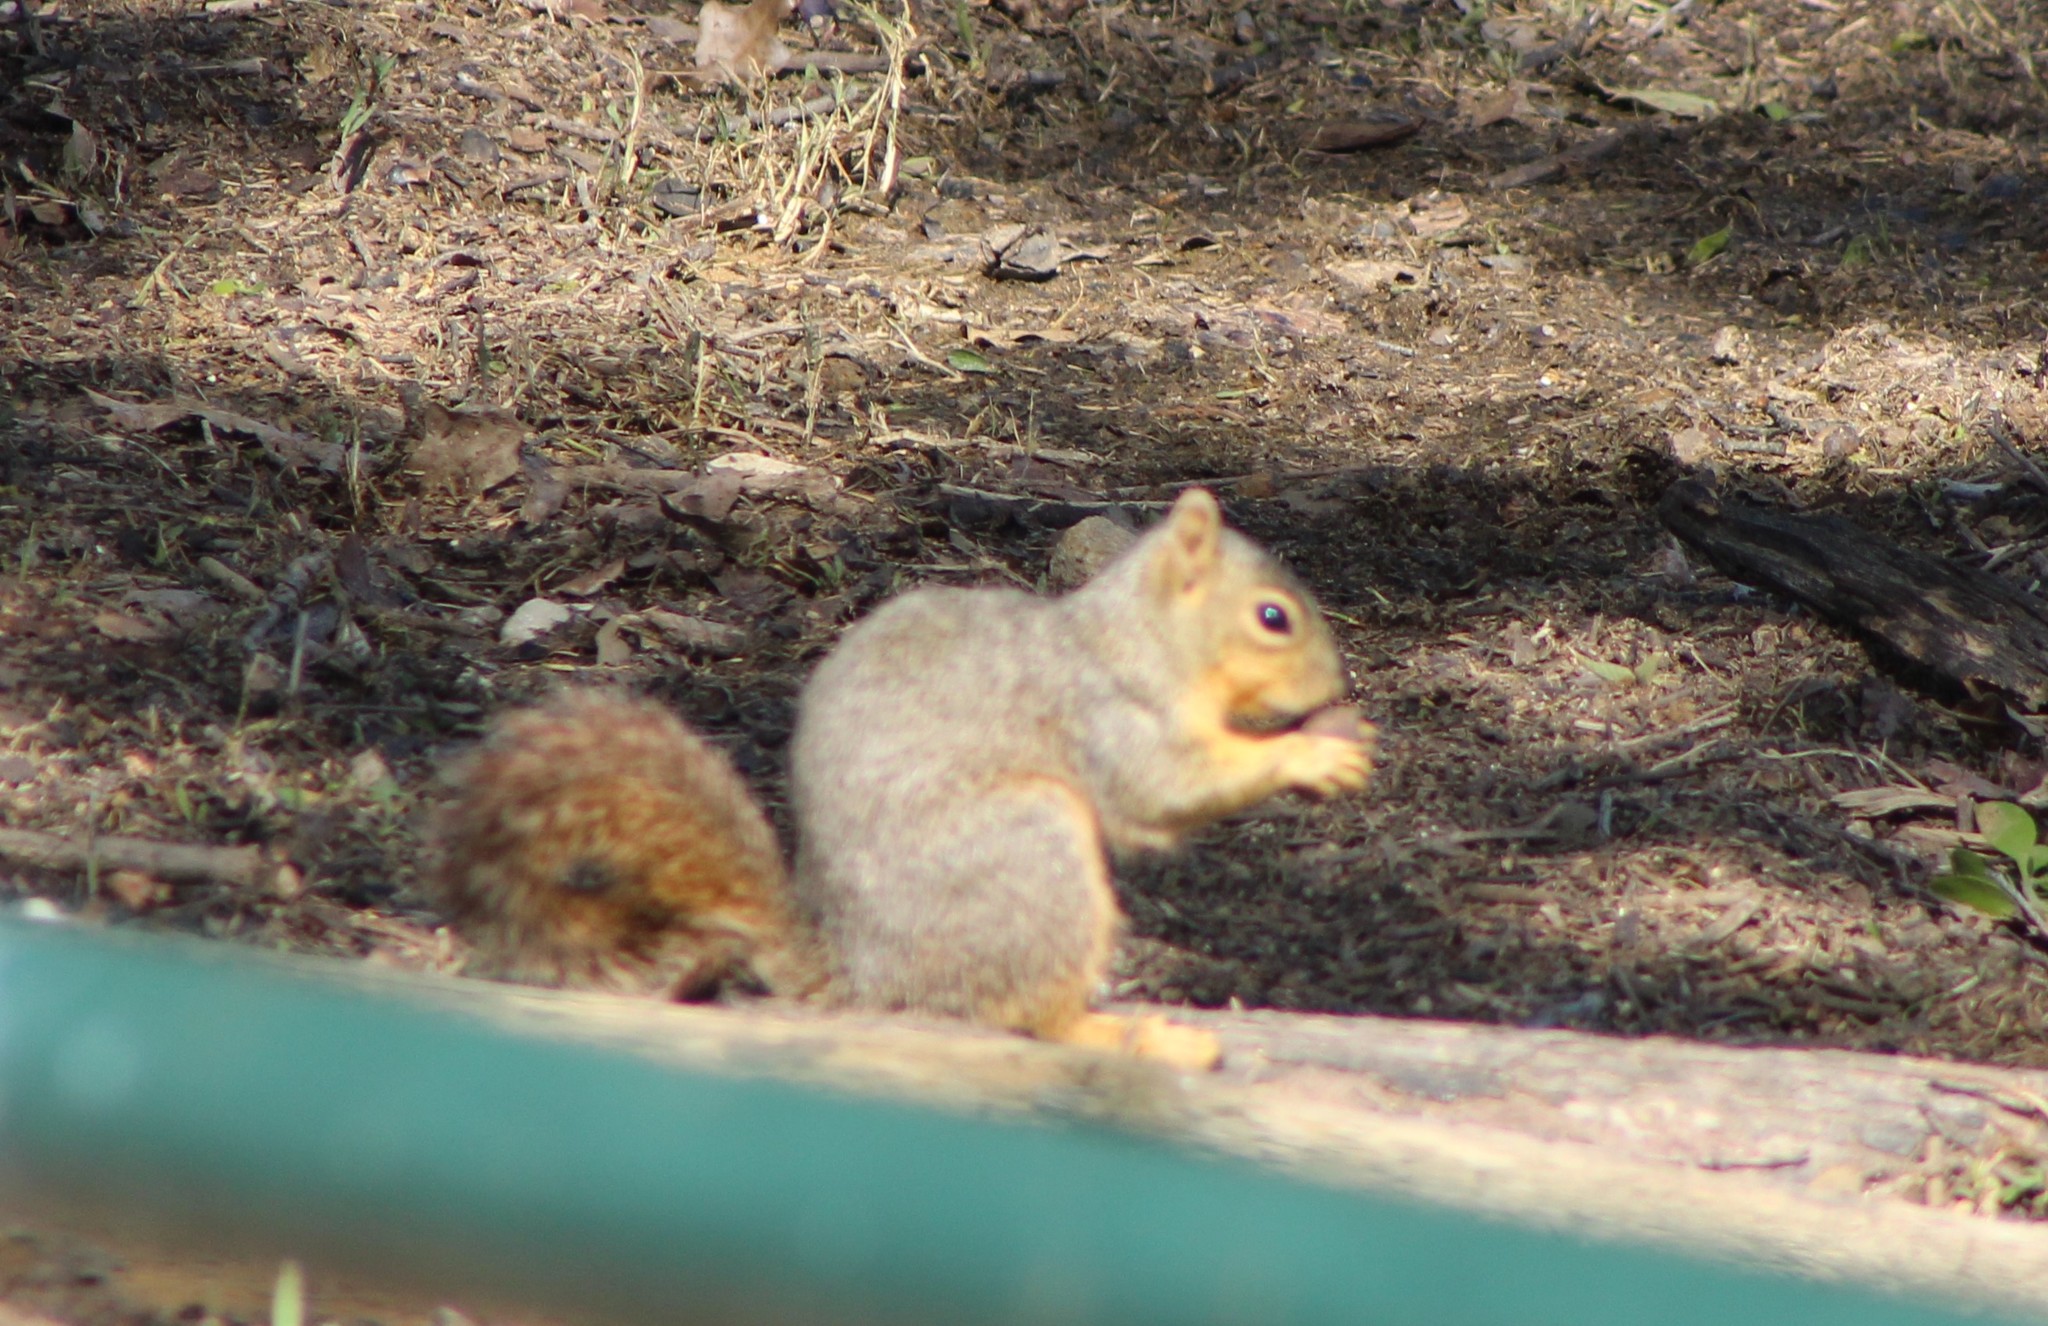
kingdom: Animalia
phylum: Chordata
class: Mammalia
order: Rodentia
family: Sciuridae
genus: Sciurus
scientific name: Sciurus niger
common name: Fox squirrel
